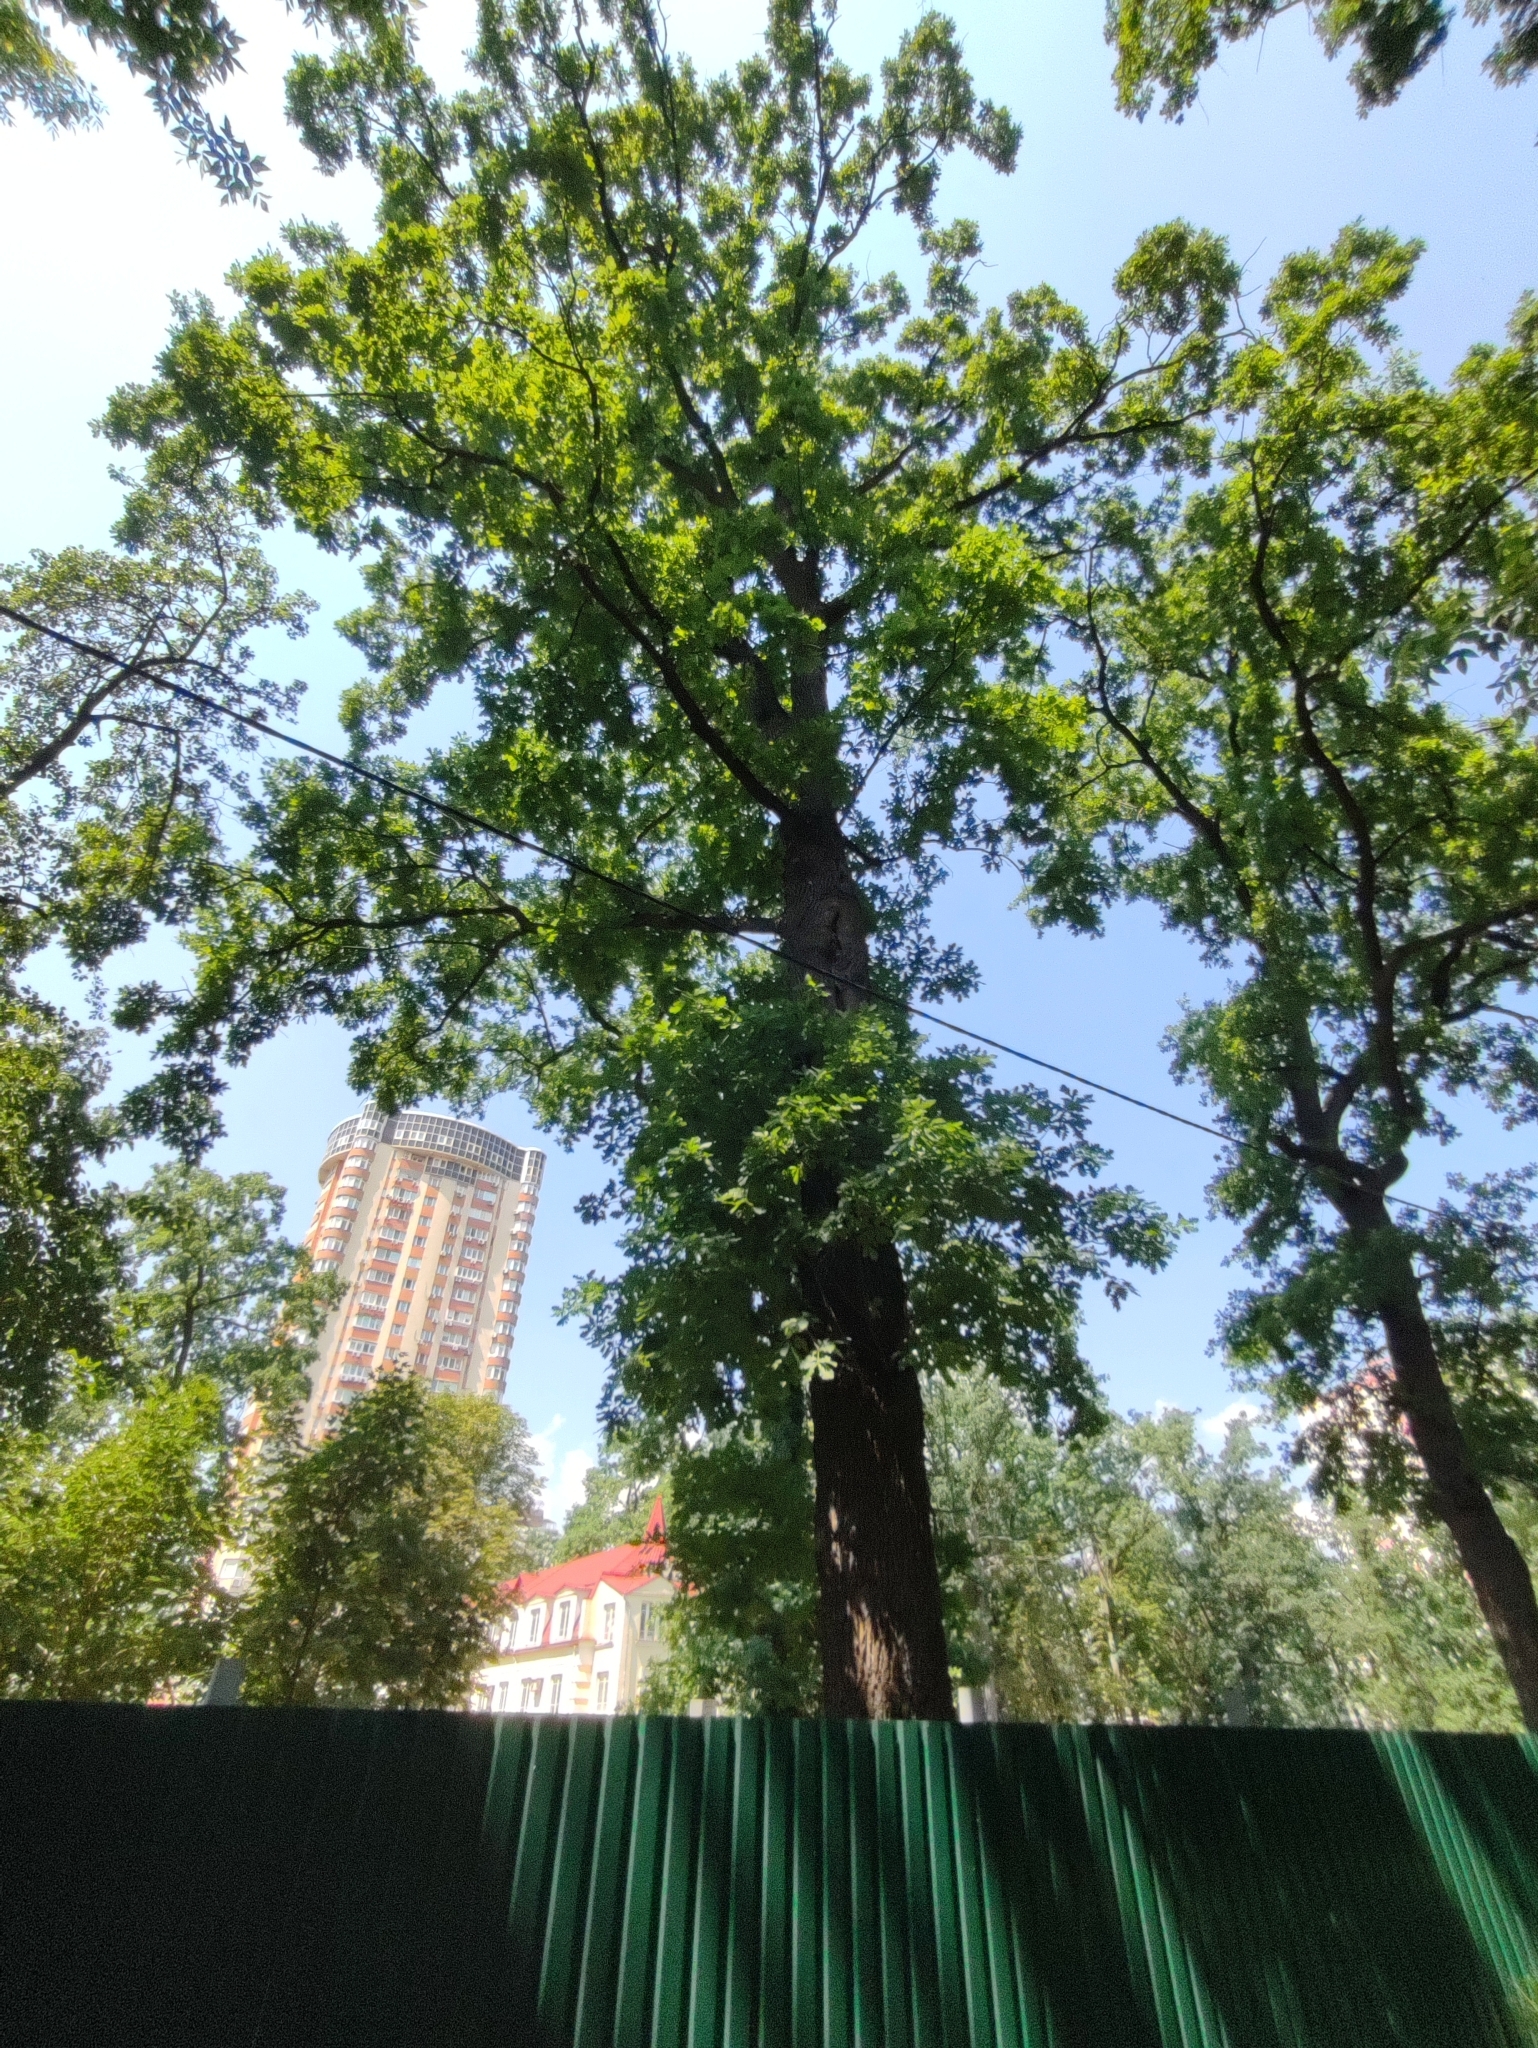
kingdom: Plantae
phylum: Tracheophyta
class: Magnoliopsida
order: Fagales
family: Fagaceae
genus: Quercus
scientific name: Quercus robur
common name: Pedunculate oak
